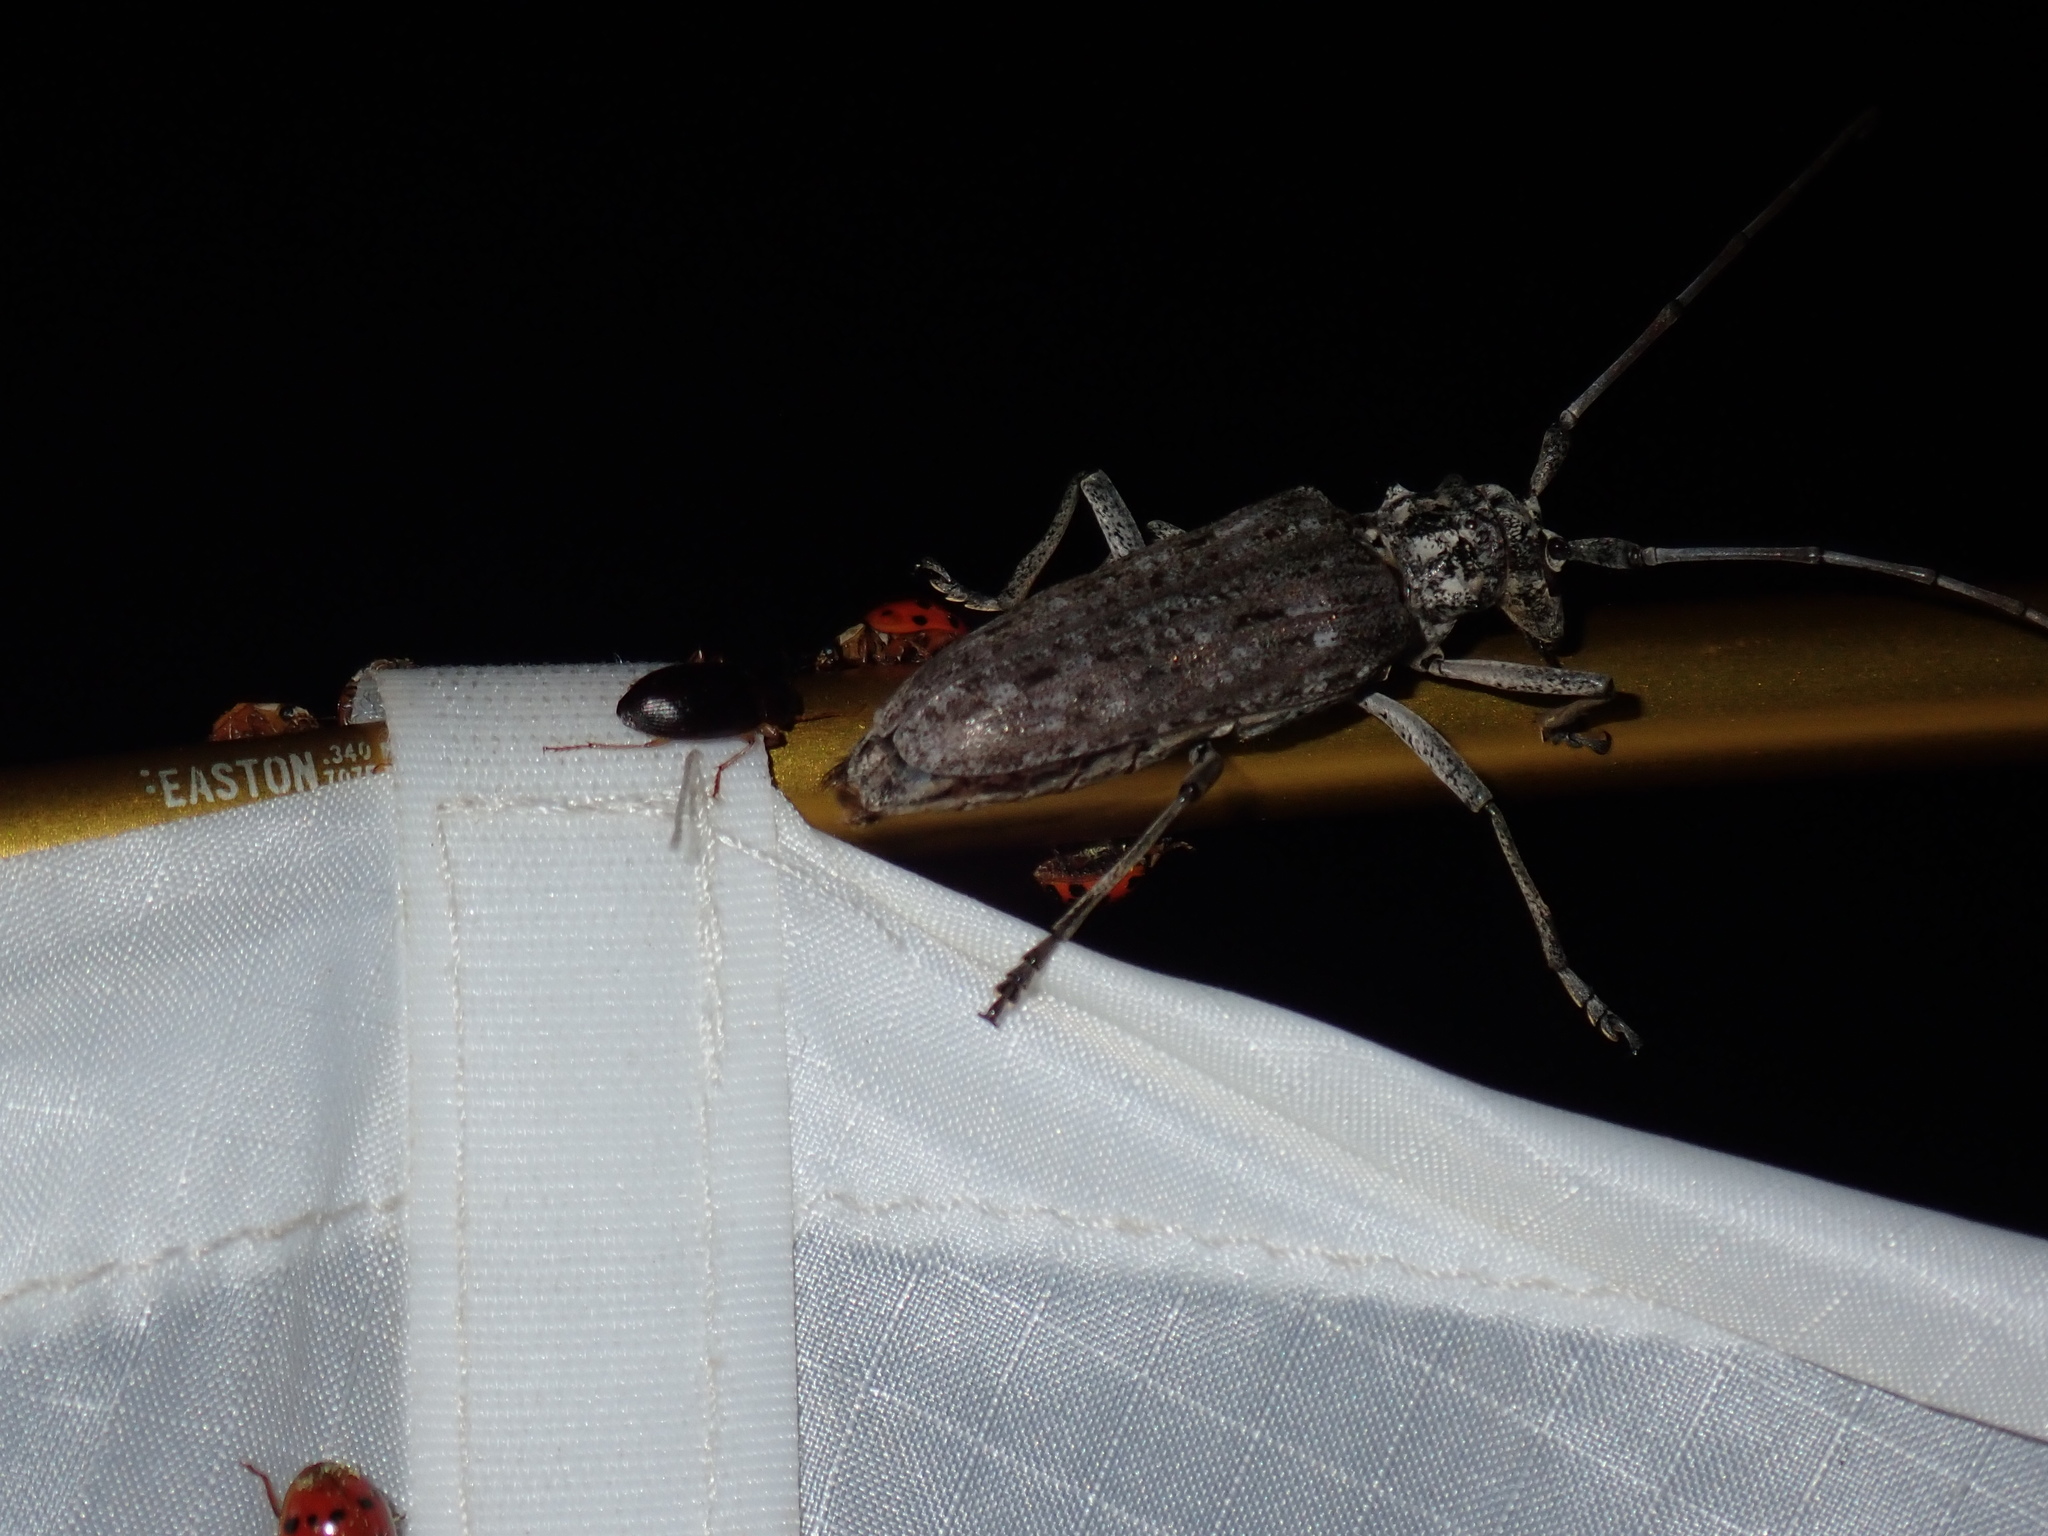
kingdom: Animalia
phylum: Arthropoda
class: Insecta
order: Coleoptera
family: Cerambycidae
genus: Monochamus
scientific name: Monochamus notatus
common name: Northeastern pine sawyer beetle
